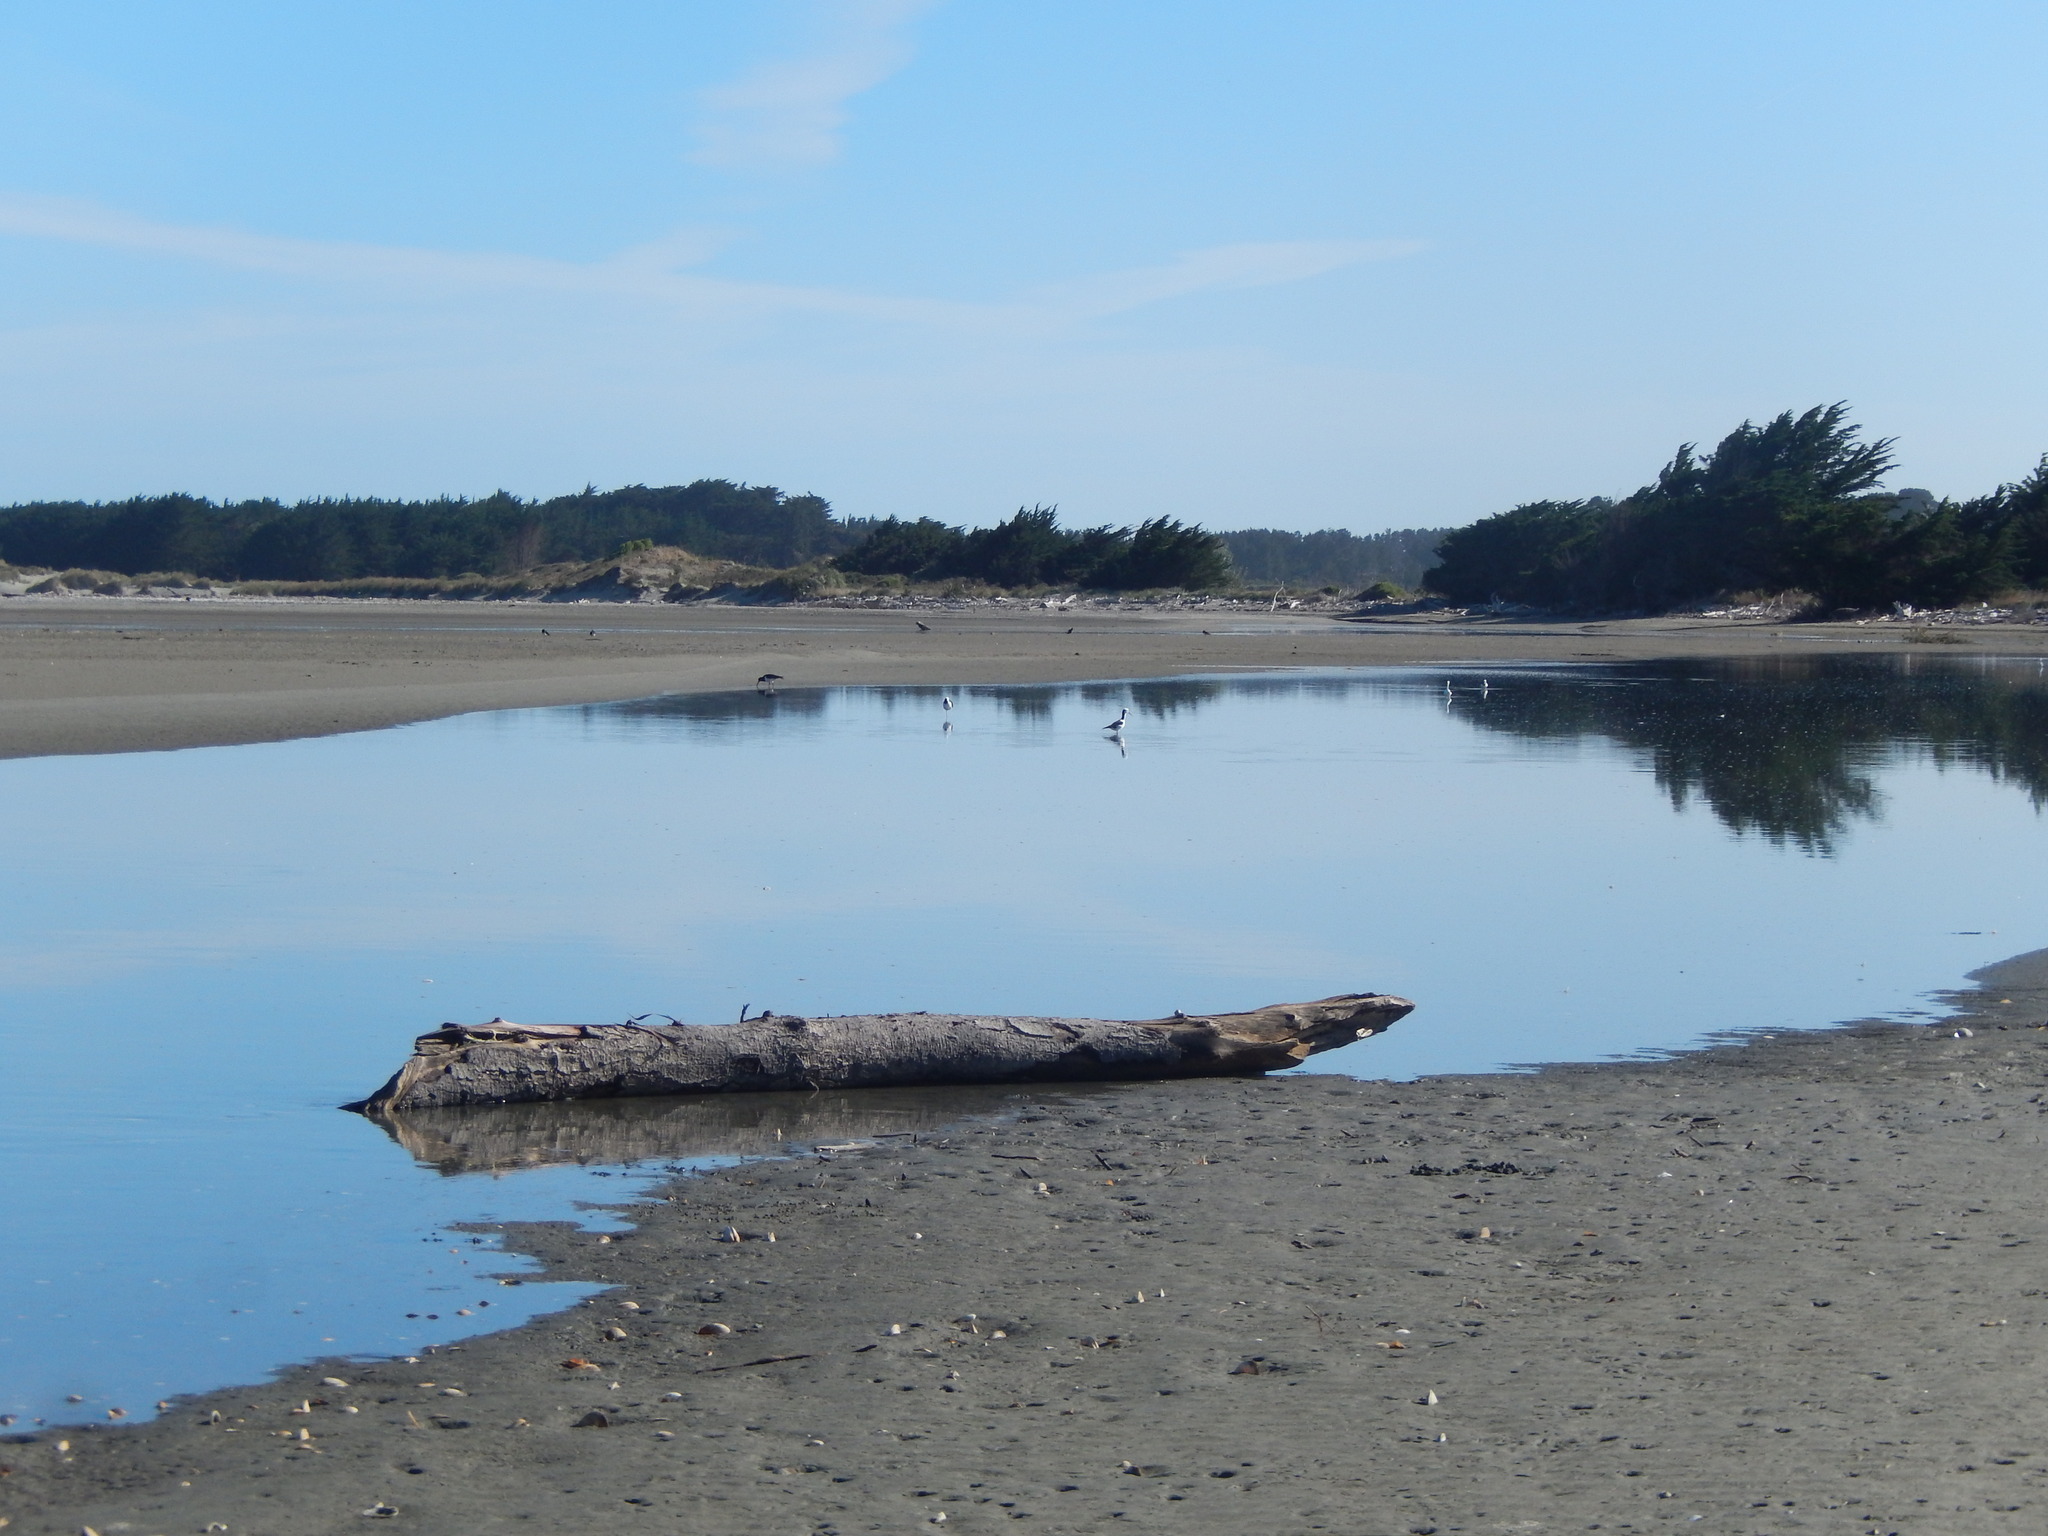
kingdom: Animalia
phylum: Chordata
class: Aves
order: Charadriiformes
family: Recurvirostridae
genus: Himantopus
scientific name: Himantopus leucocephalus
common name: White-headed stilt
